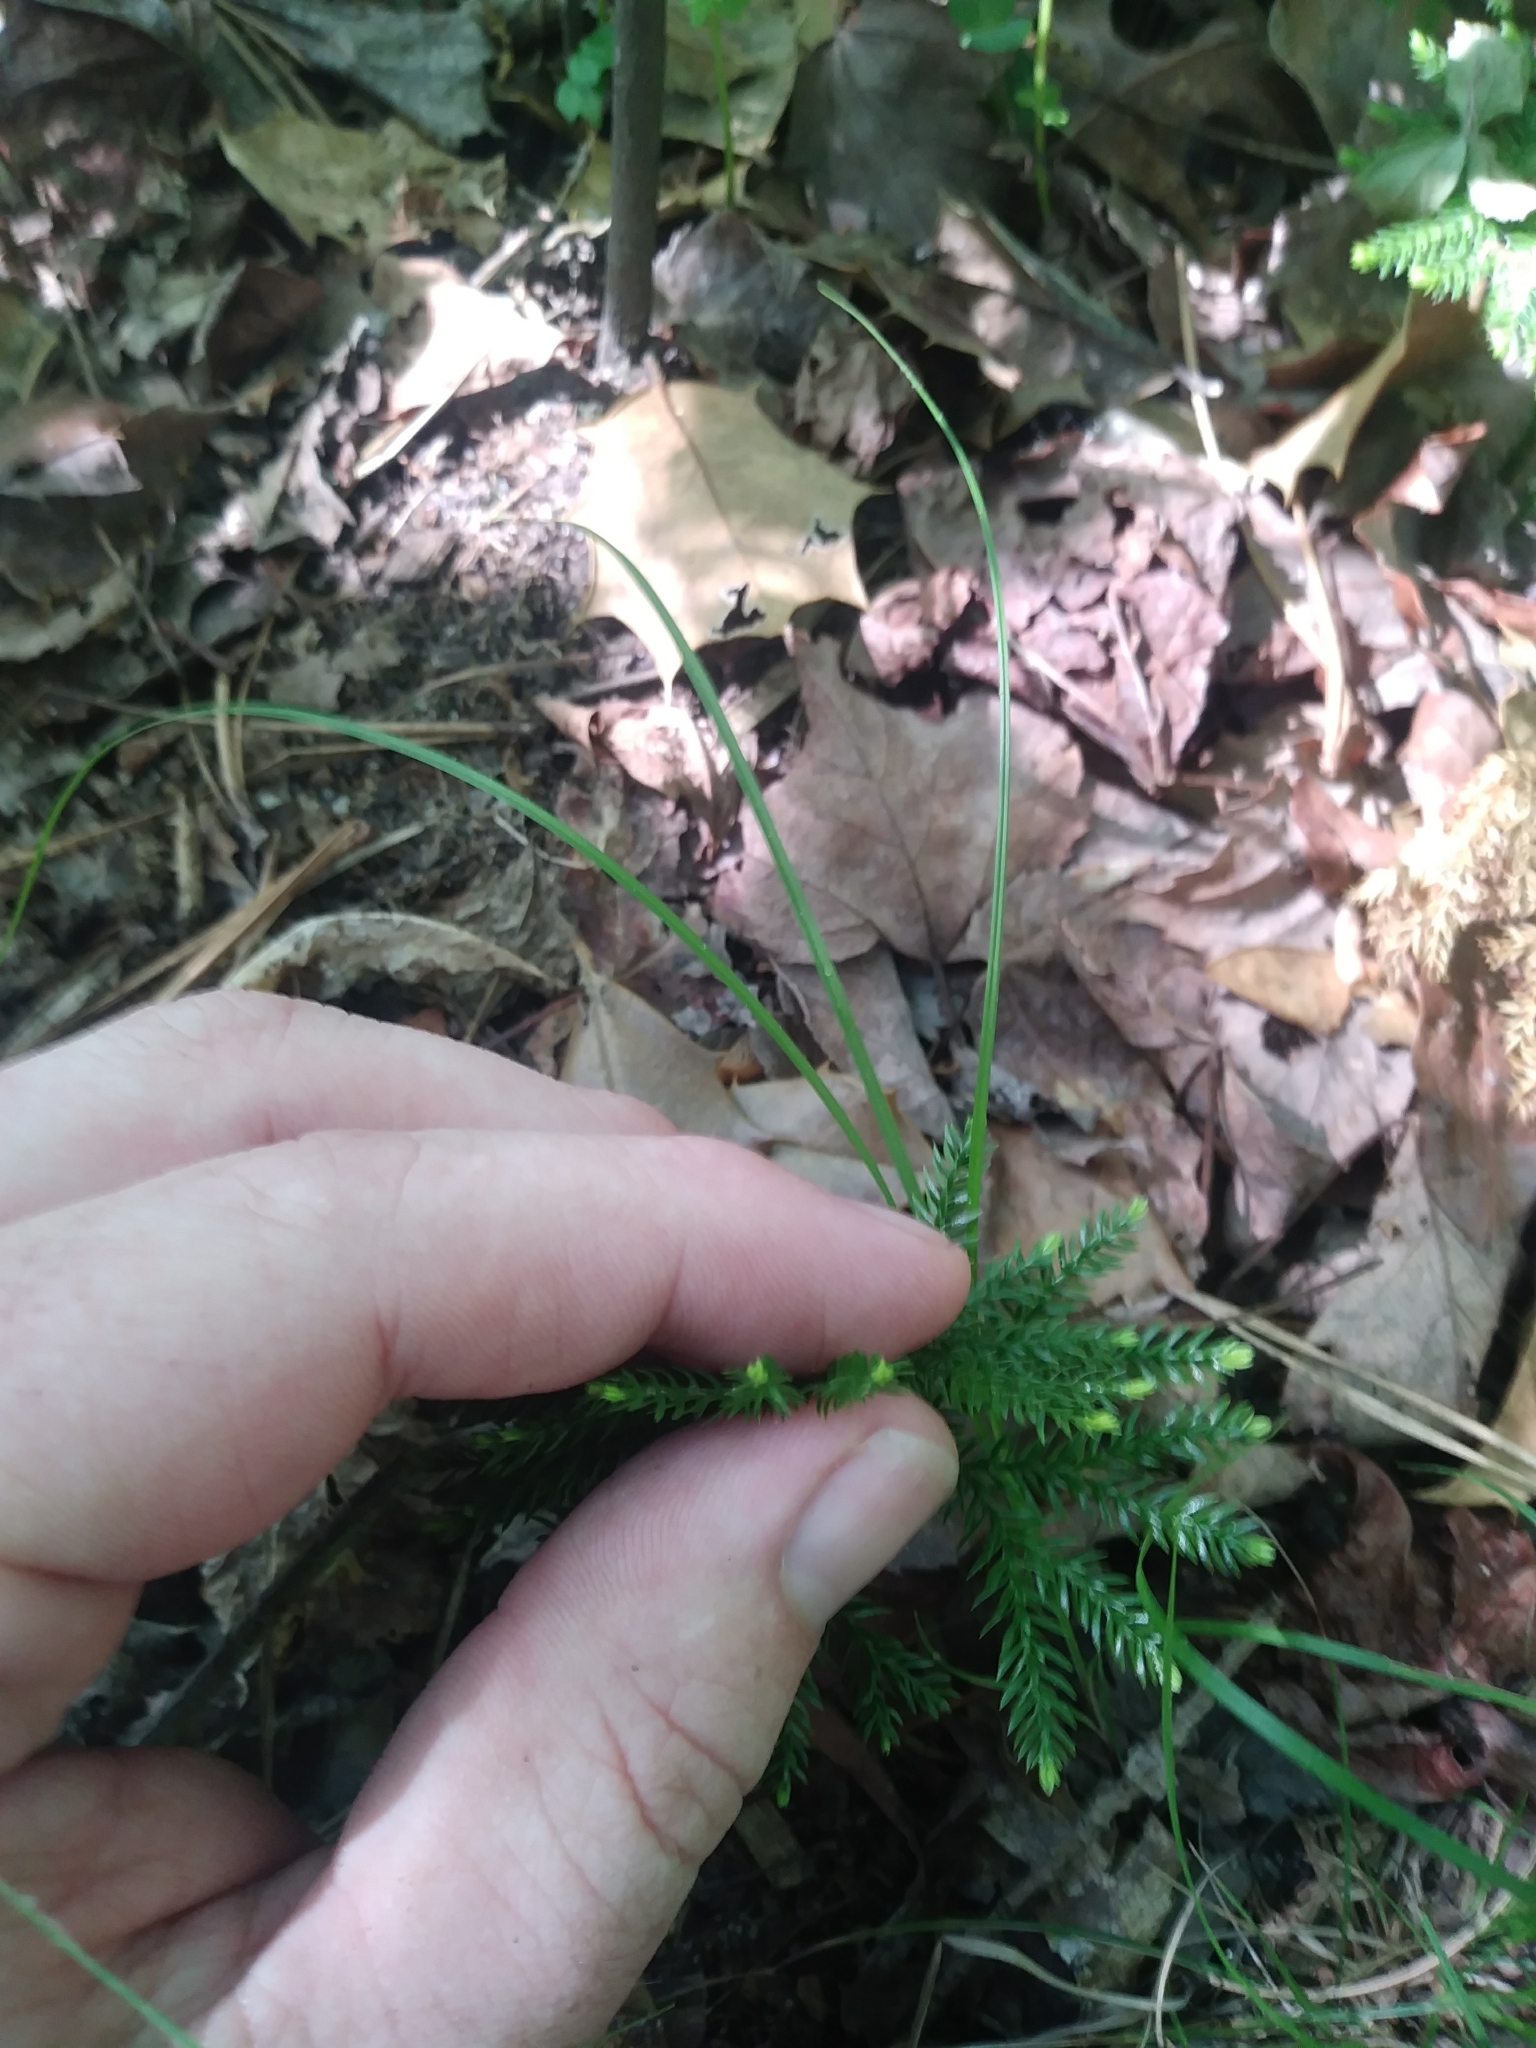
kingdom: Plantae
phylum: Tracheophyta
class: Lycopodiopsida
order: Lycopodiales
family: Lycopodiaceae
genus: Dendrolycopodium
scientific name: Dendrolycopodium obscurum
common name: Common ground-pine
